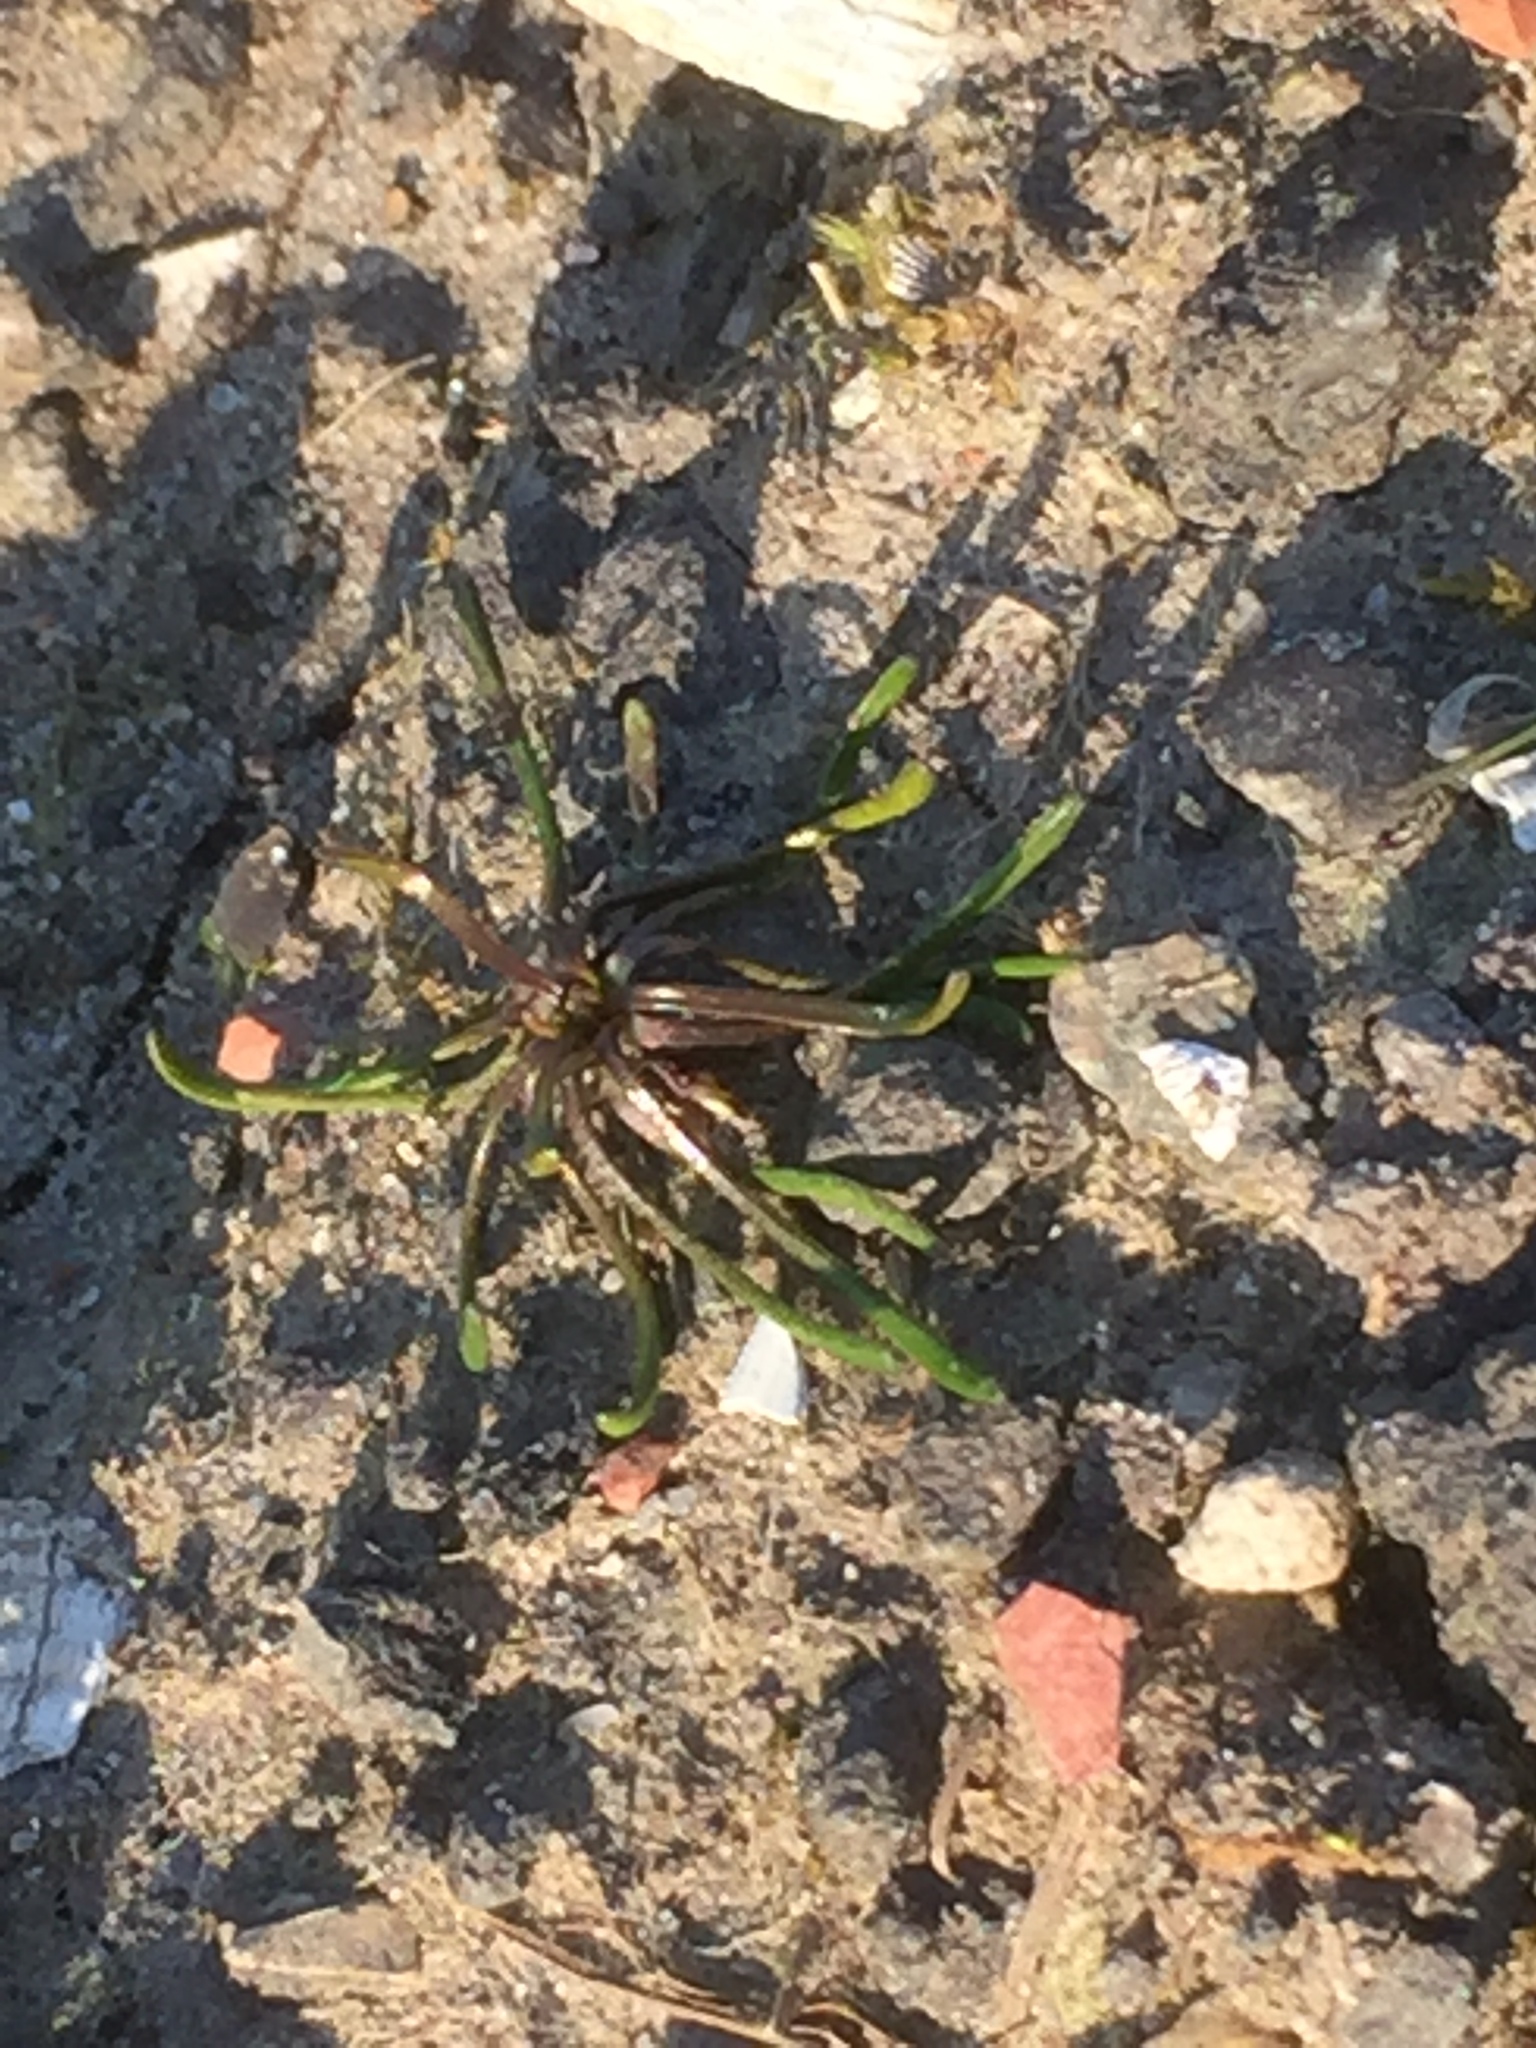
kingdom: Plantae
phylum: Tracheophyta
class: Magnoliopsida
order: Ranunculales
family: Ranunculaceae
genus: Myosurus
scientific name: Myosurus minimus
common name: Mousetail
